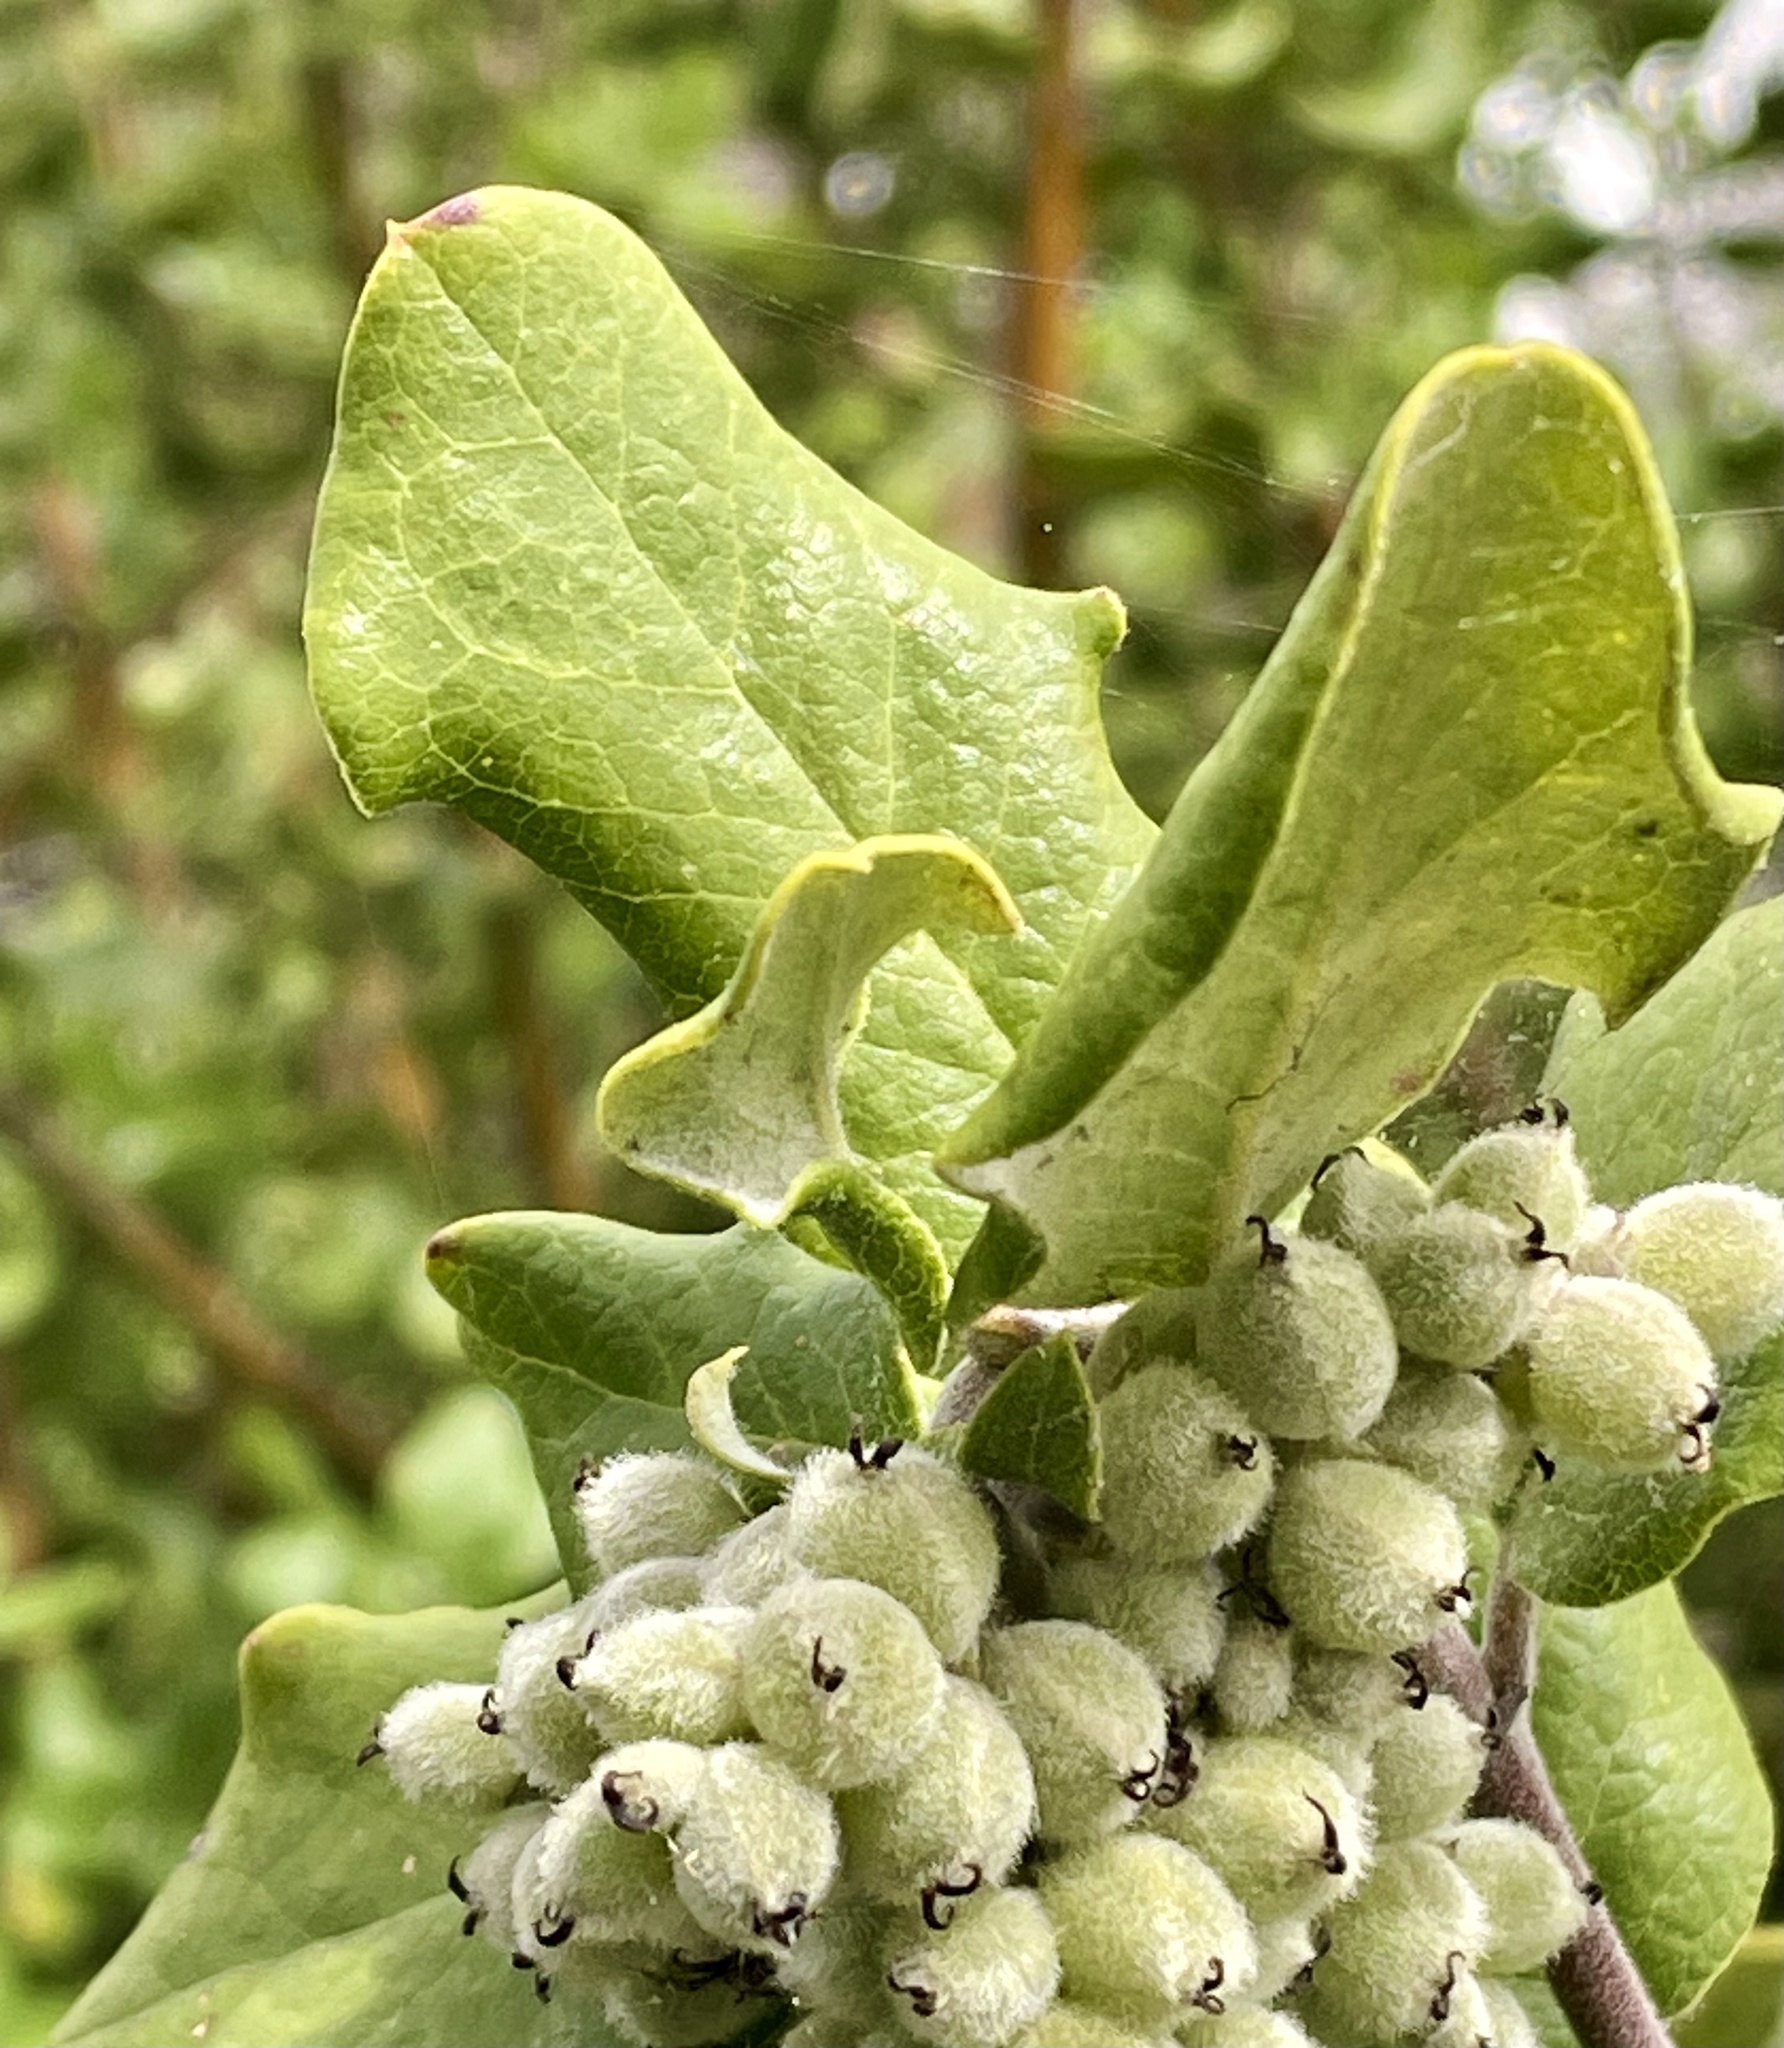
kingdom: Plantae
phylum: Tracheophyta
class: Magnoliopsida
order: Garryales
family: Garryaceae
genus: Garrya
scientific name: Garrya elliptica
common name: Silk-tassel
